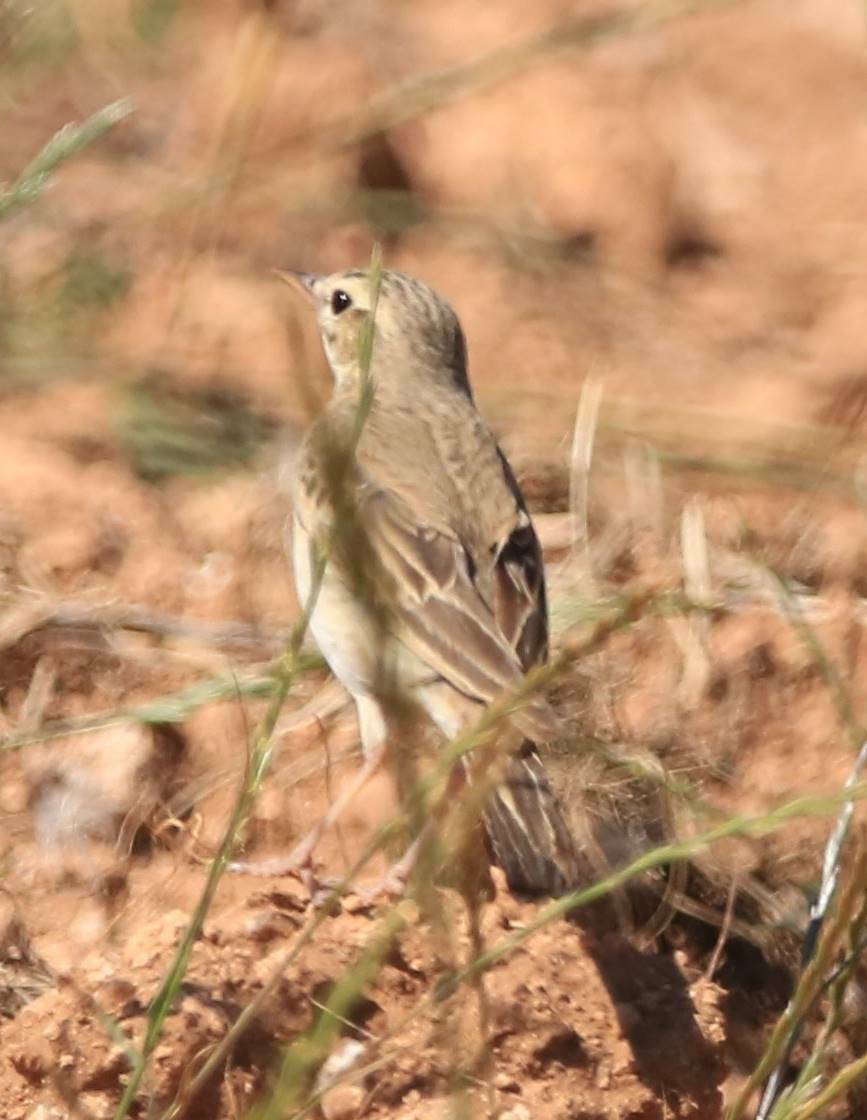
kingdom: Animalia
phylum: Chordata
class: Aves
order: Passeriformes
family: Motacillidae
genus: Anthus
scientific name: Anthus campestris
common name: Tawny pipit
